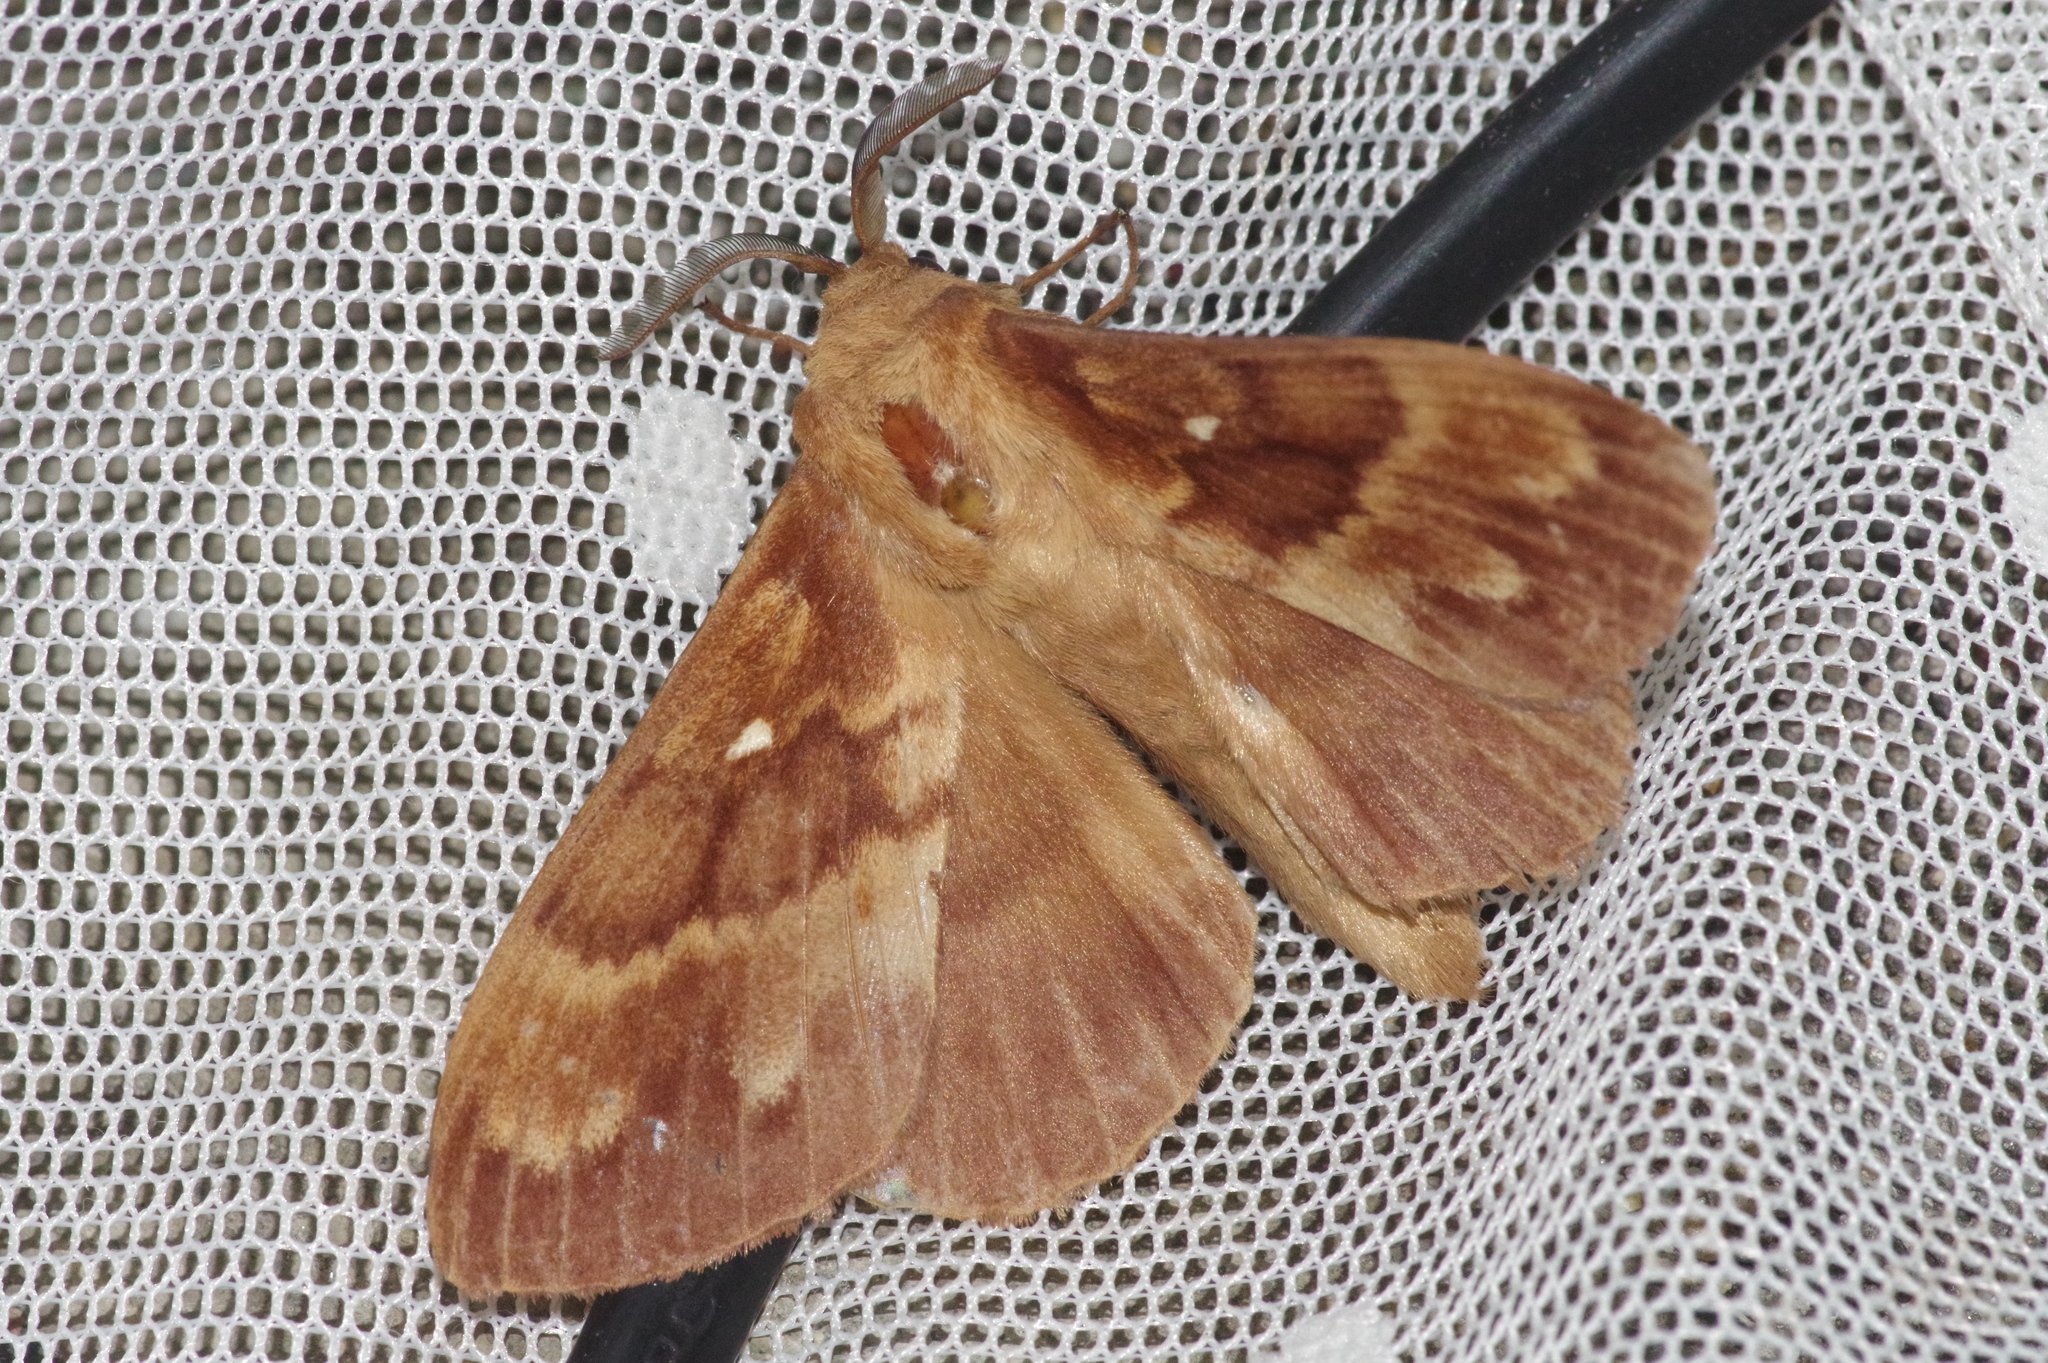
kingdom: Animalia
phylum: Arthropoda
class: Insecta
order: Lepidoptera
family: Lasiocampidae
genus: Dendrolimus
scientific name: Dendrolimus superans
